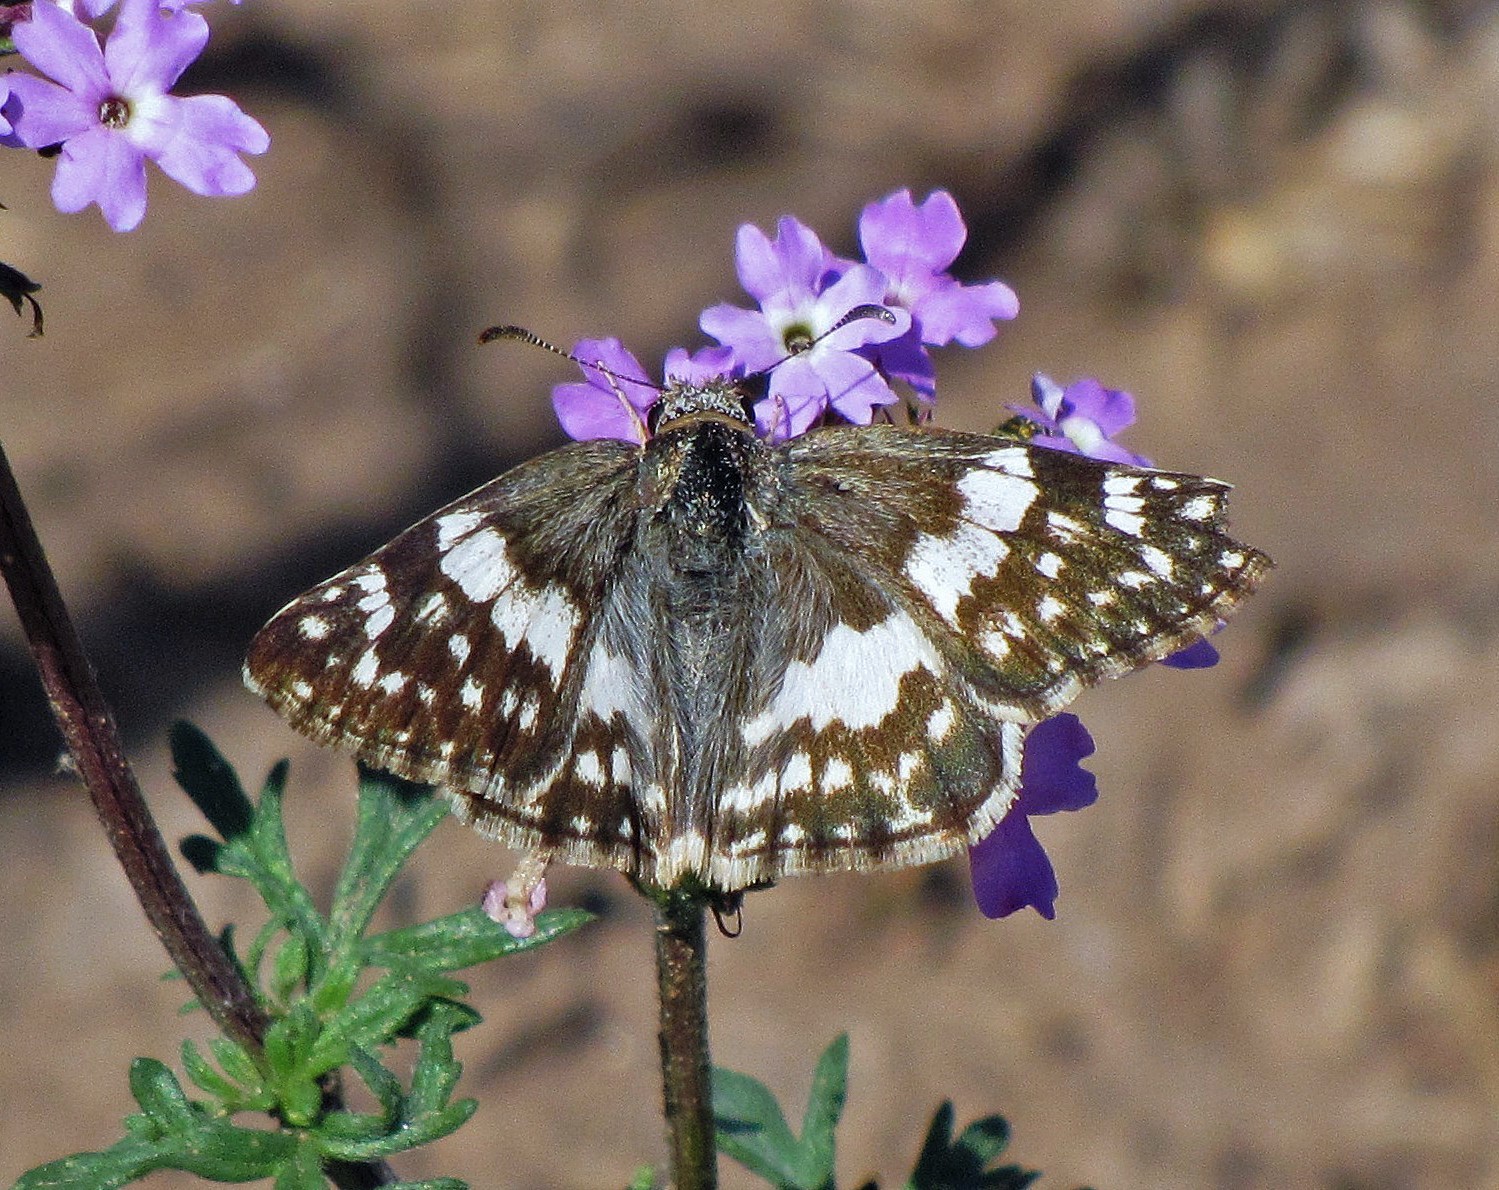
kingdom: Animalia
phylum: Arthropoda
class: Insecta
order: Lepidoptera
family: Hesperiidae
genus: Heliopyrgus
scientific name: Heliopyrgus domicella
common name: Erichson's white skipper
